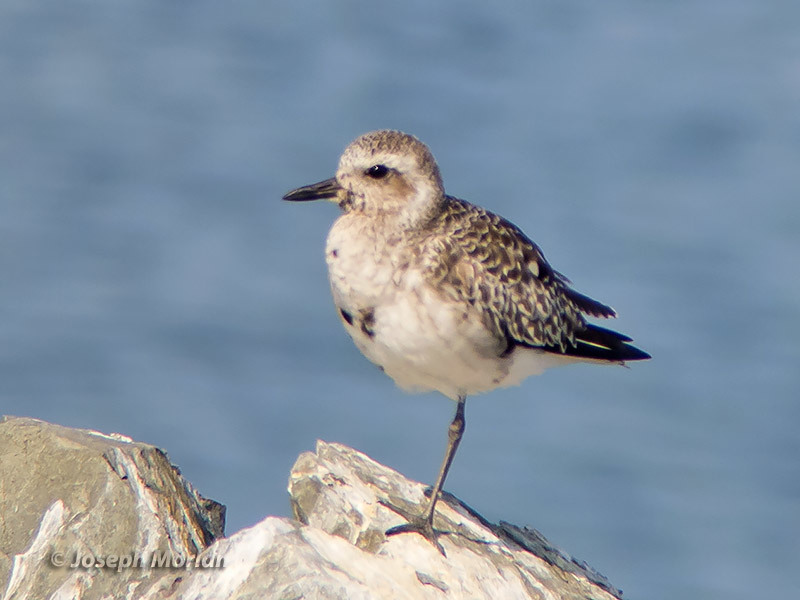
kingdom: Animalia
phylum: Chordata
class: Aves
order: Charadriiformes
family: Charadriidae
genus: Pluvialis
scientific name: Pluvialis squatarola
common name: Grey plover
